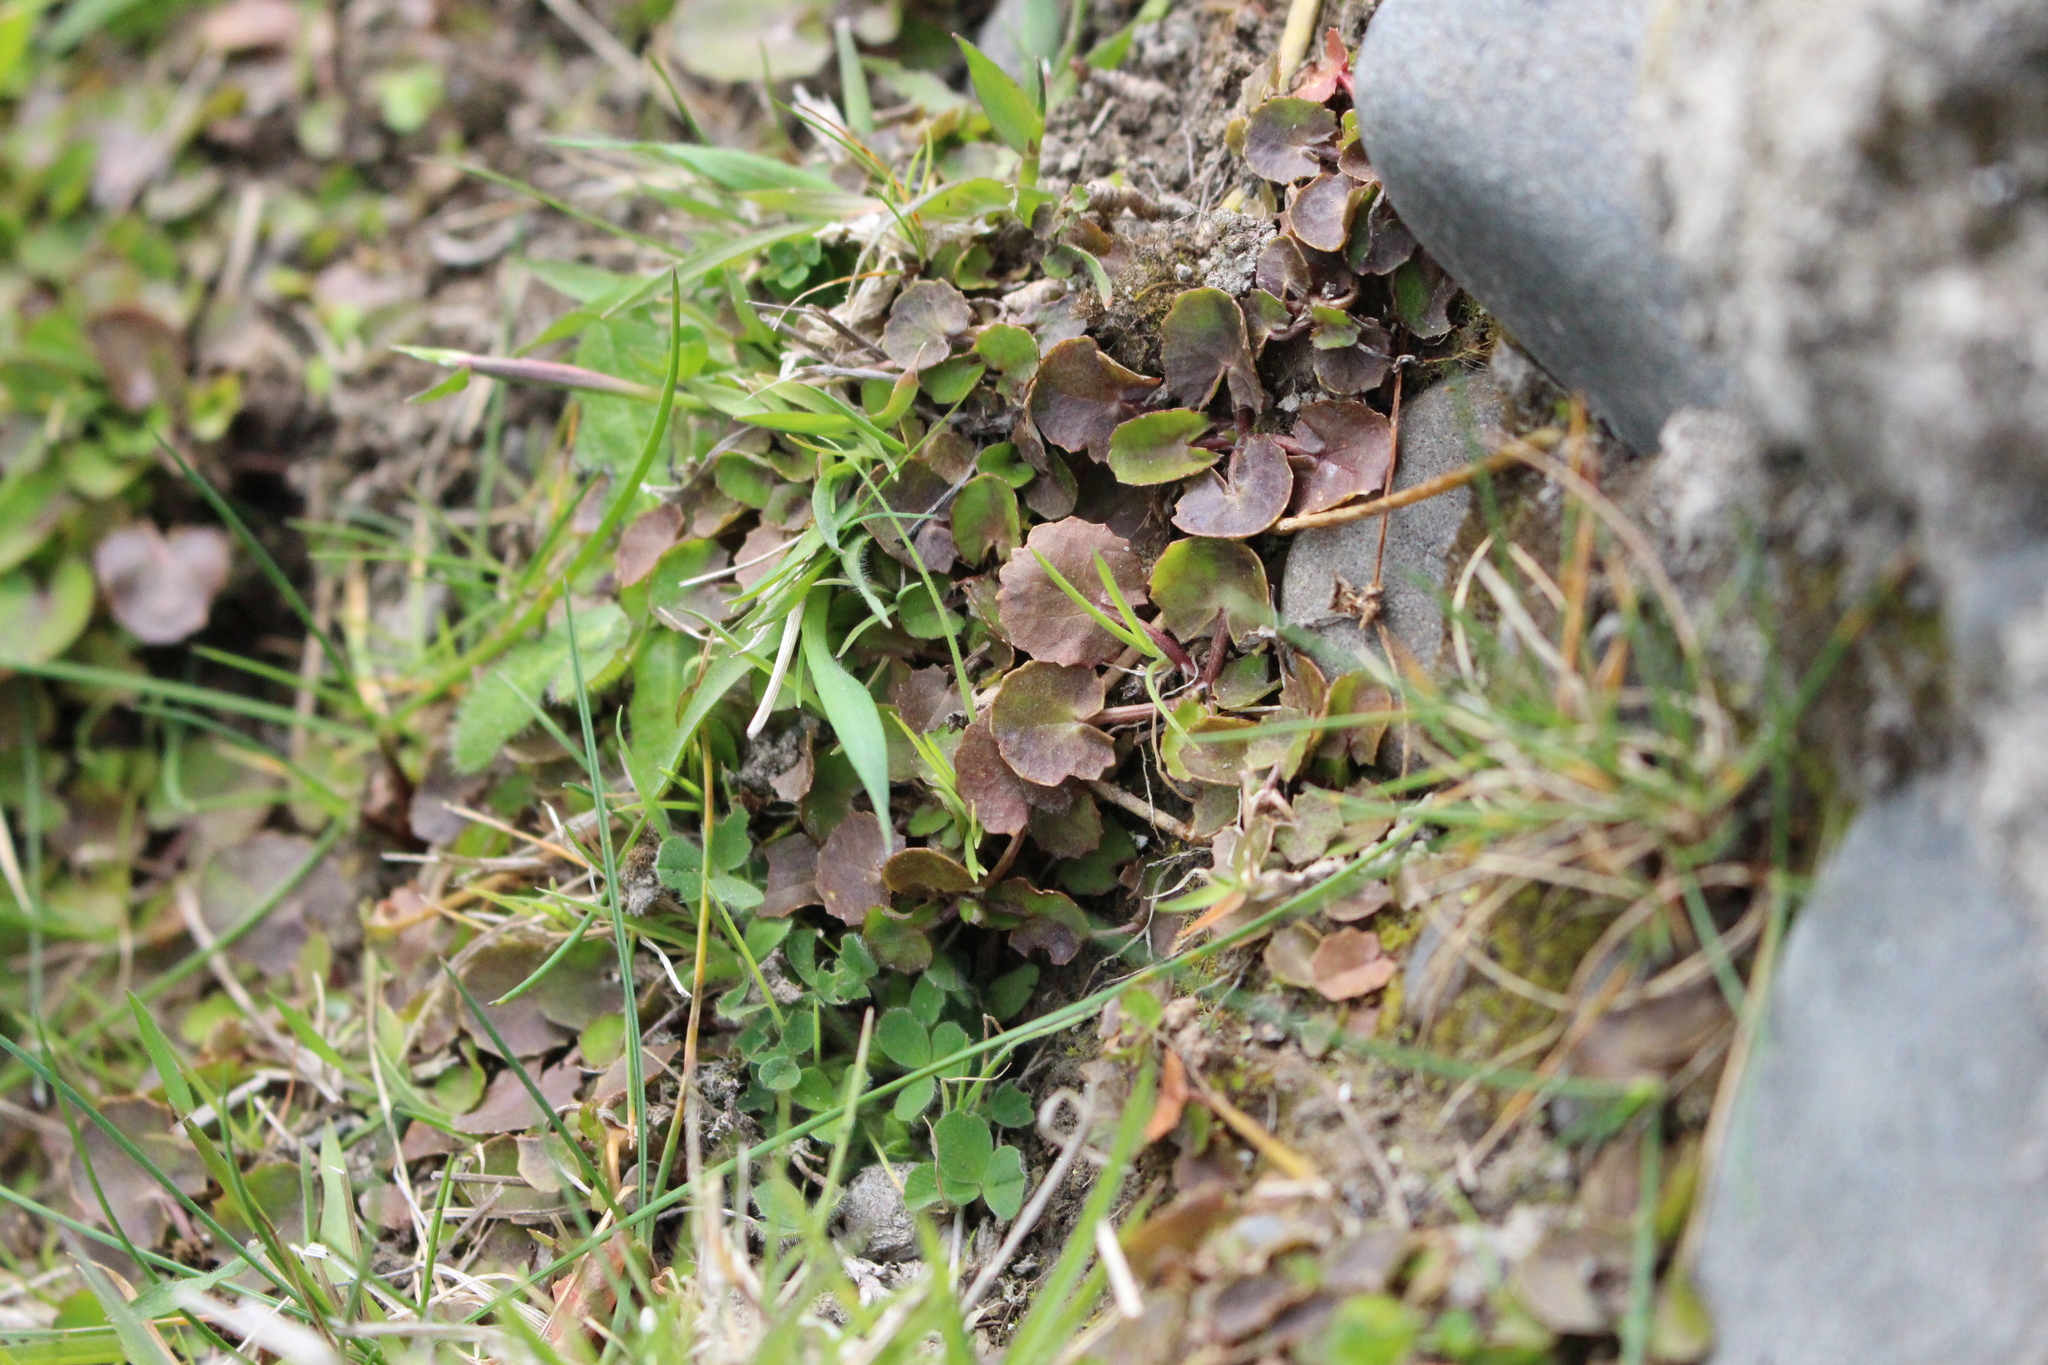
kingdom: Plantae
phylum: Tracheophyta
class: Magnoliopsida
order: Apiales
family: Apiaceae
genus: Centella
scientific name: Centella uniflora
